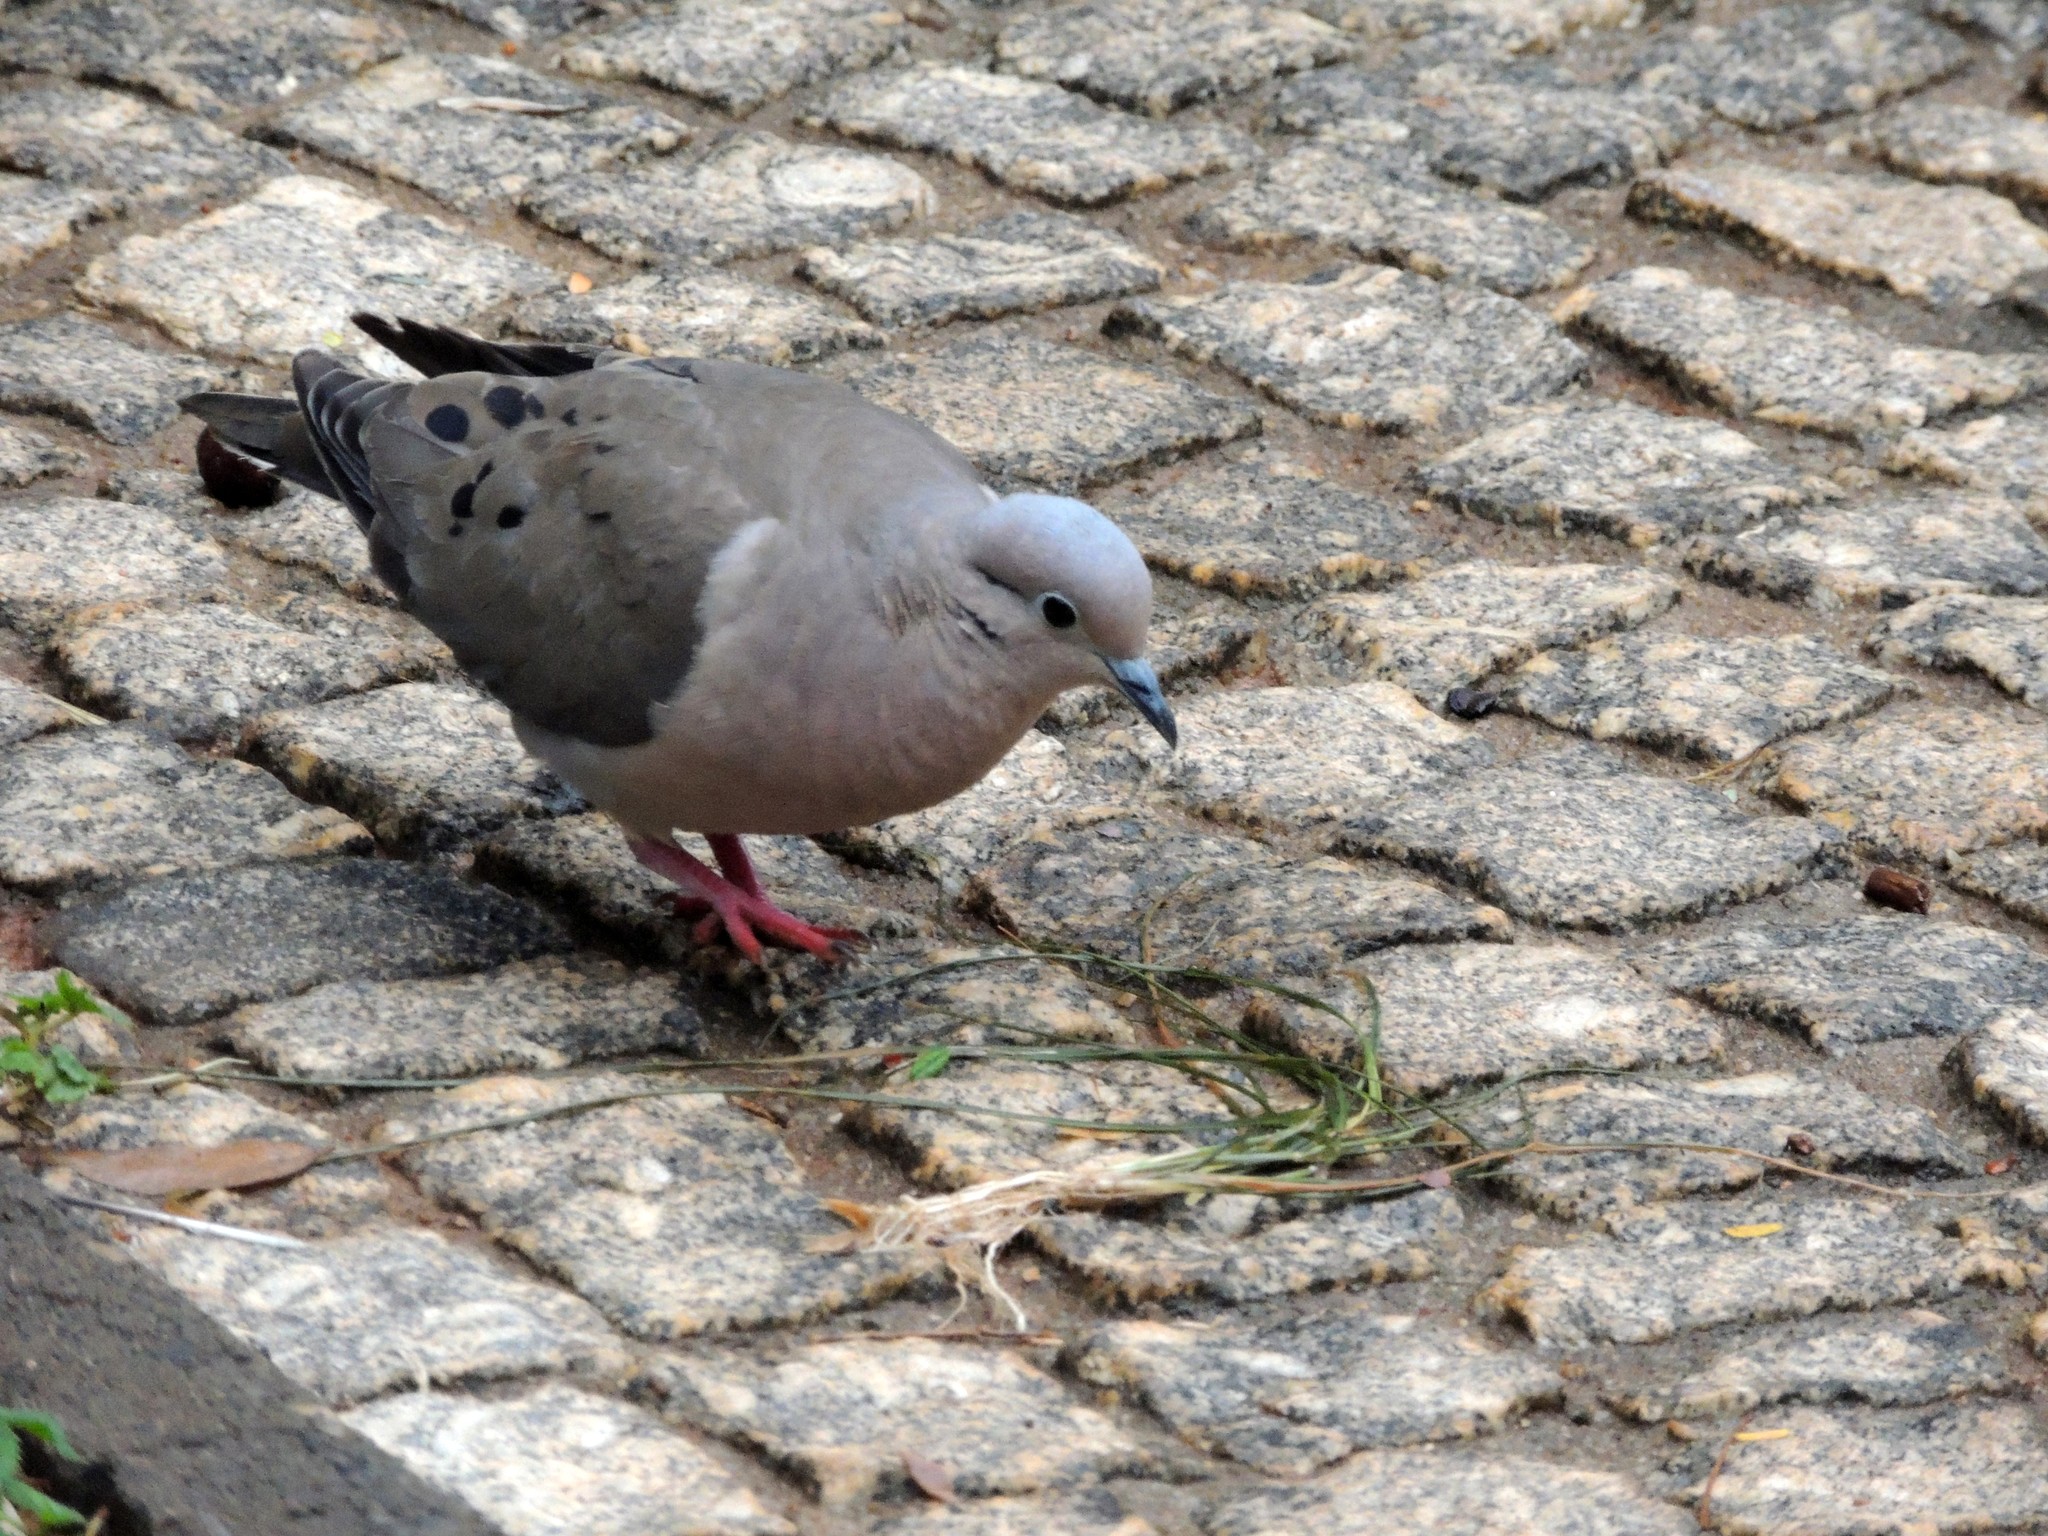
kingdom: Animalia
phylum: Chordata
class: Aves
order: Columbiformes
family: Columbidae
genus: Zenaida
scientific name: Zenaida auriculata
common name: Eared dove
